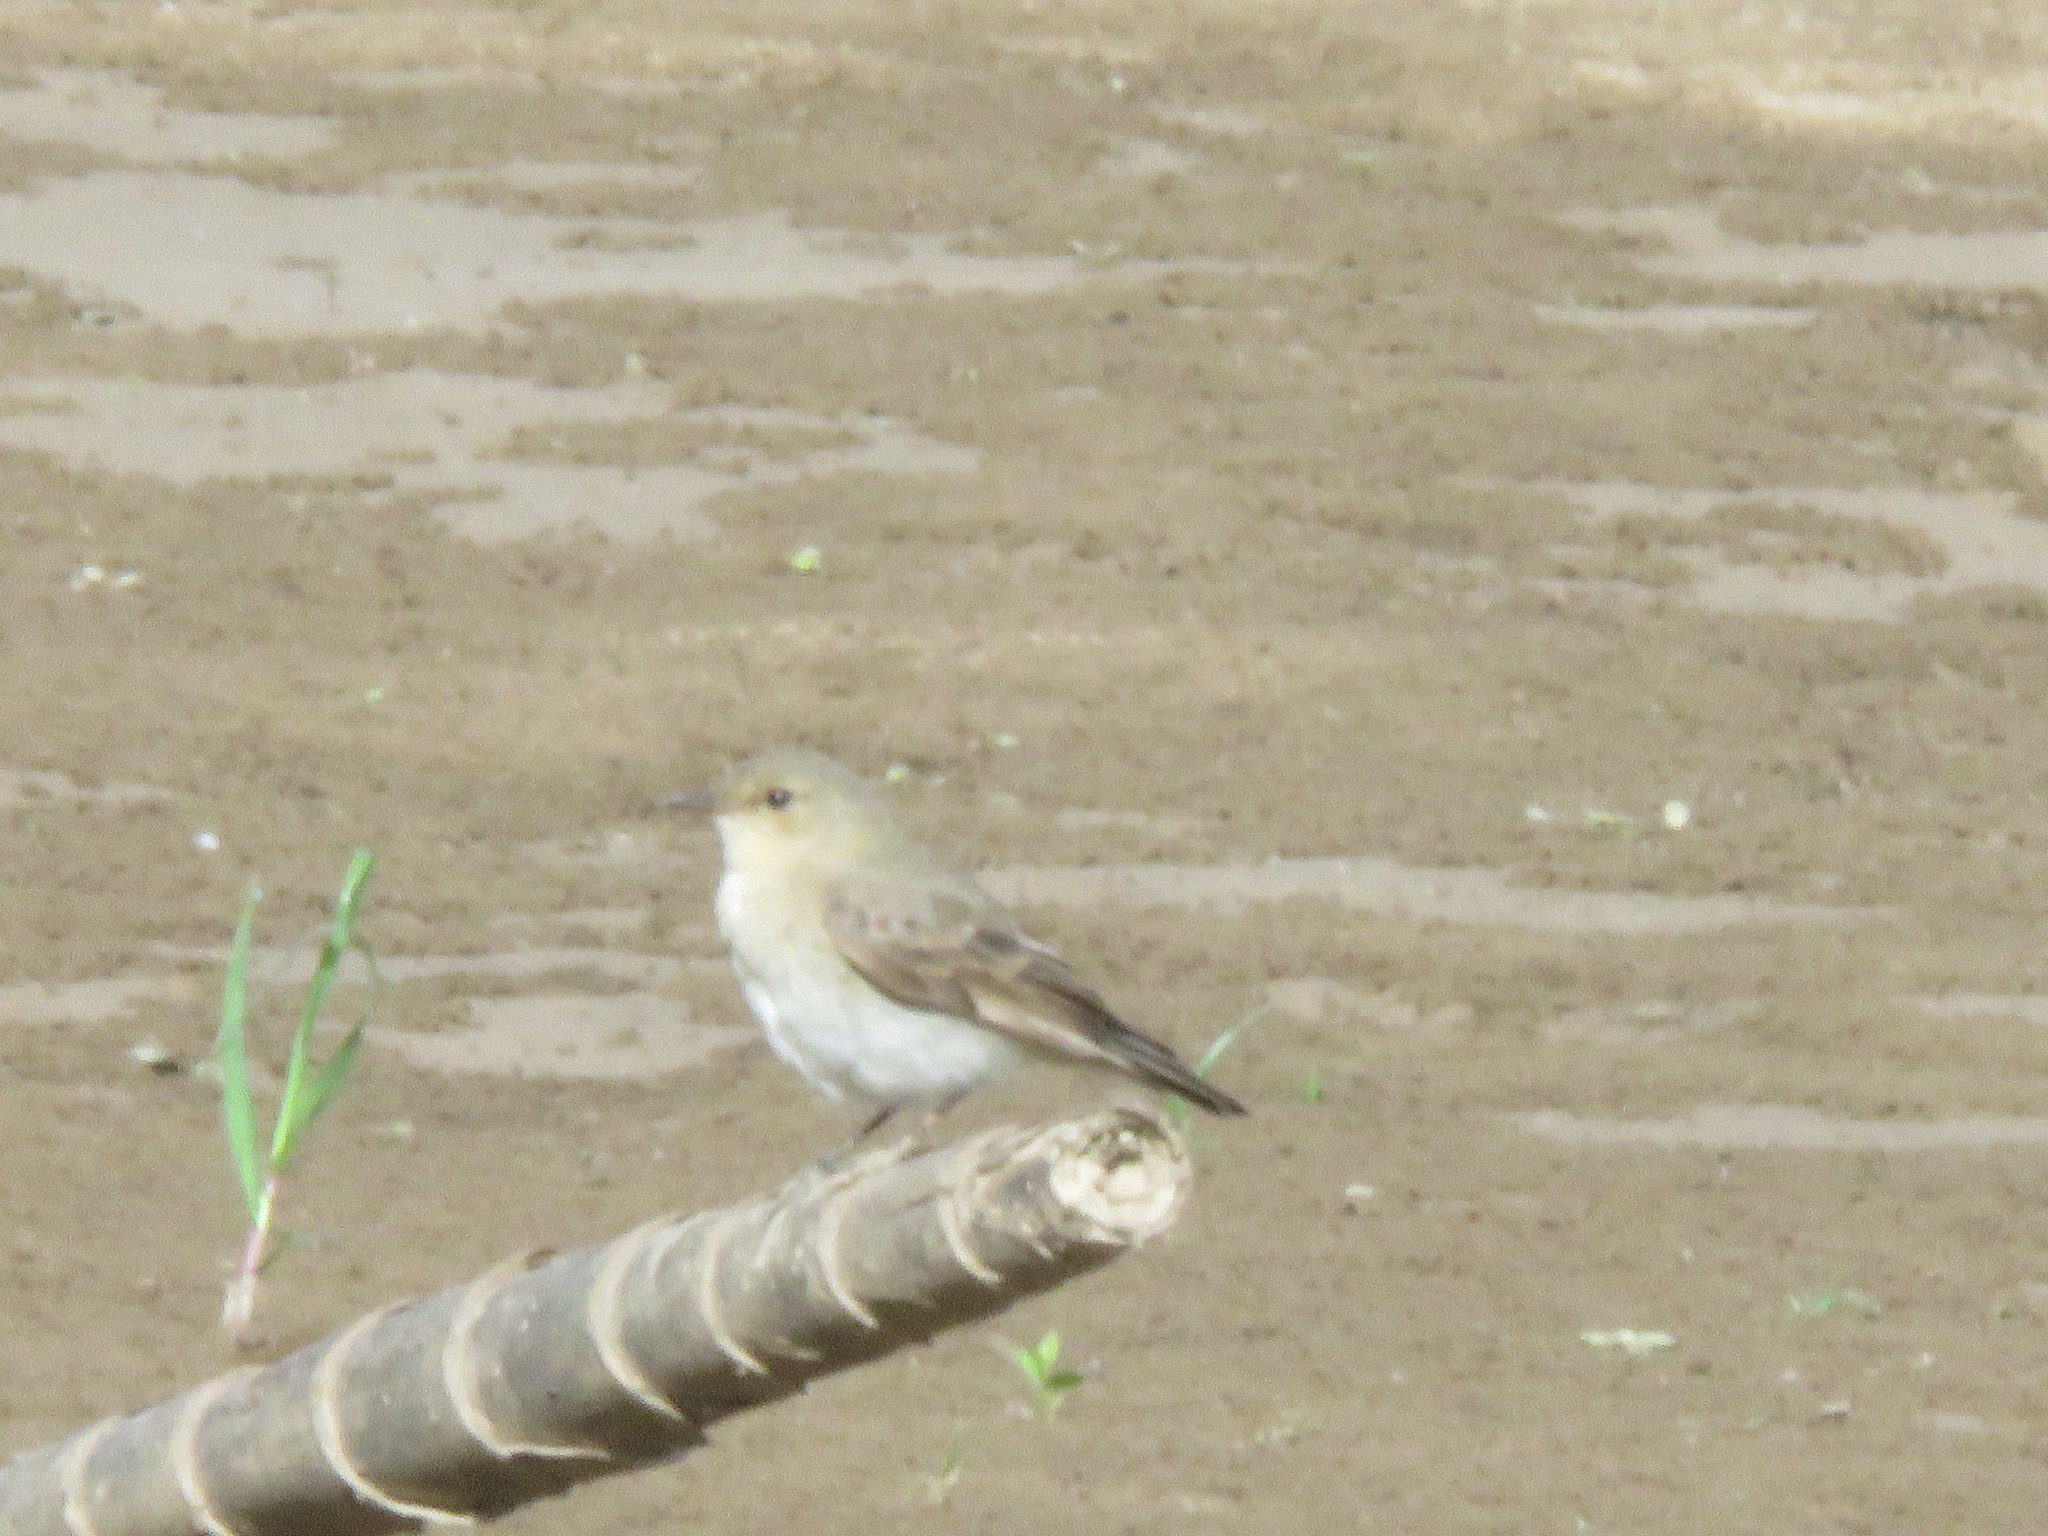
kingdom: Animalia
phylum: Chordata
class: Aves
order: Passeriformes
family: Tyrannidae
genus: Muscisaxicola
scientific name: Muscisaxicola fluviatilis
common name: Little ground tyrant
